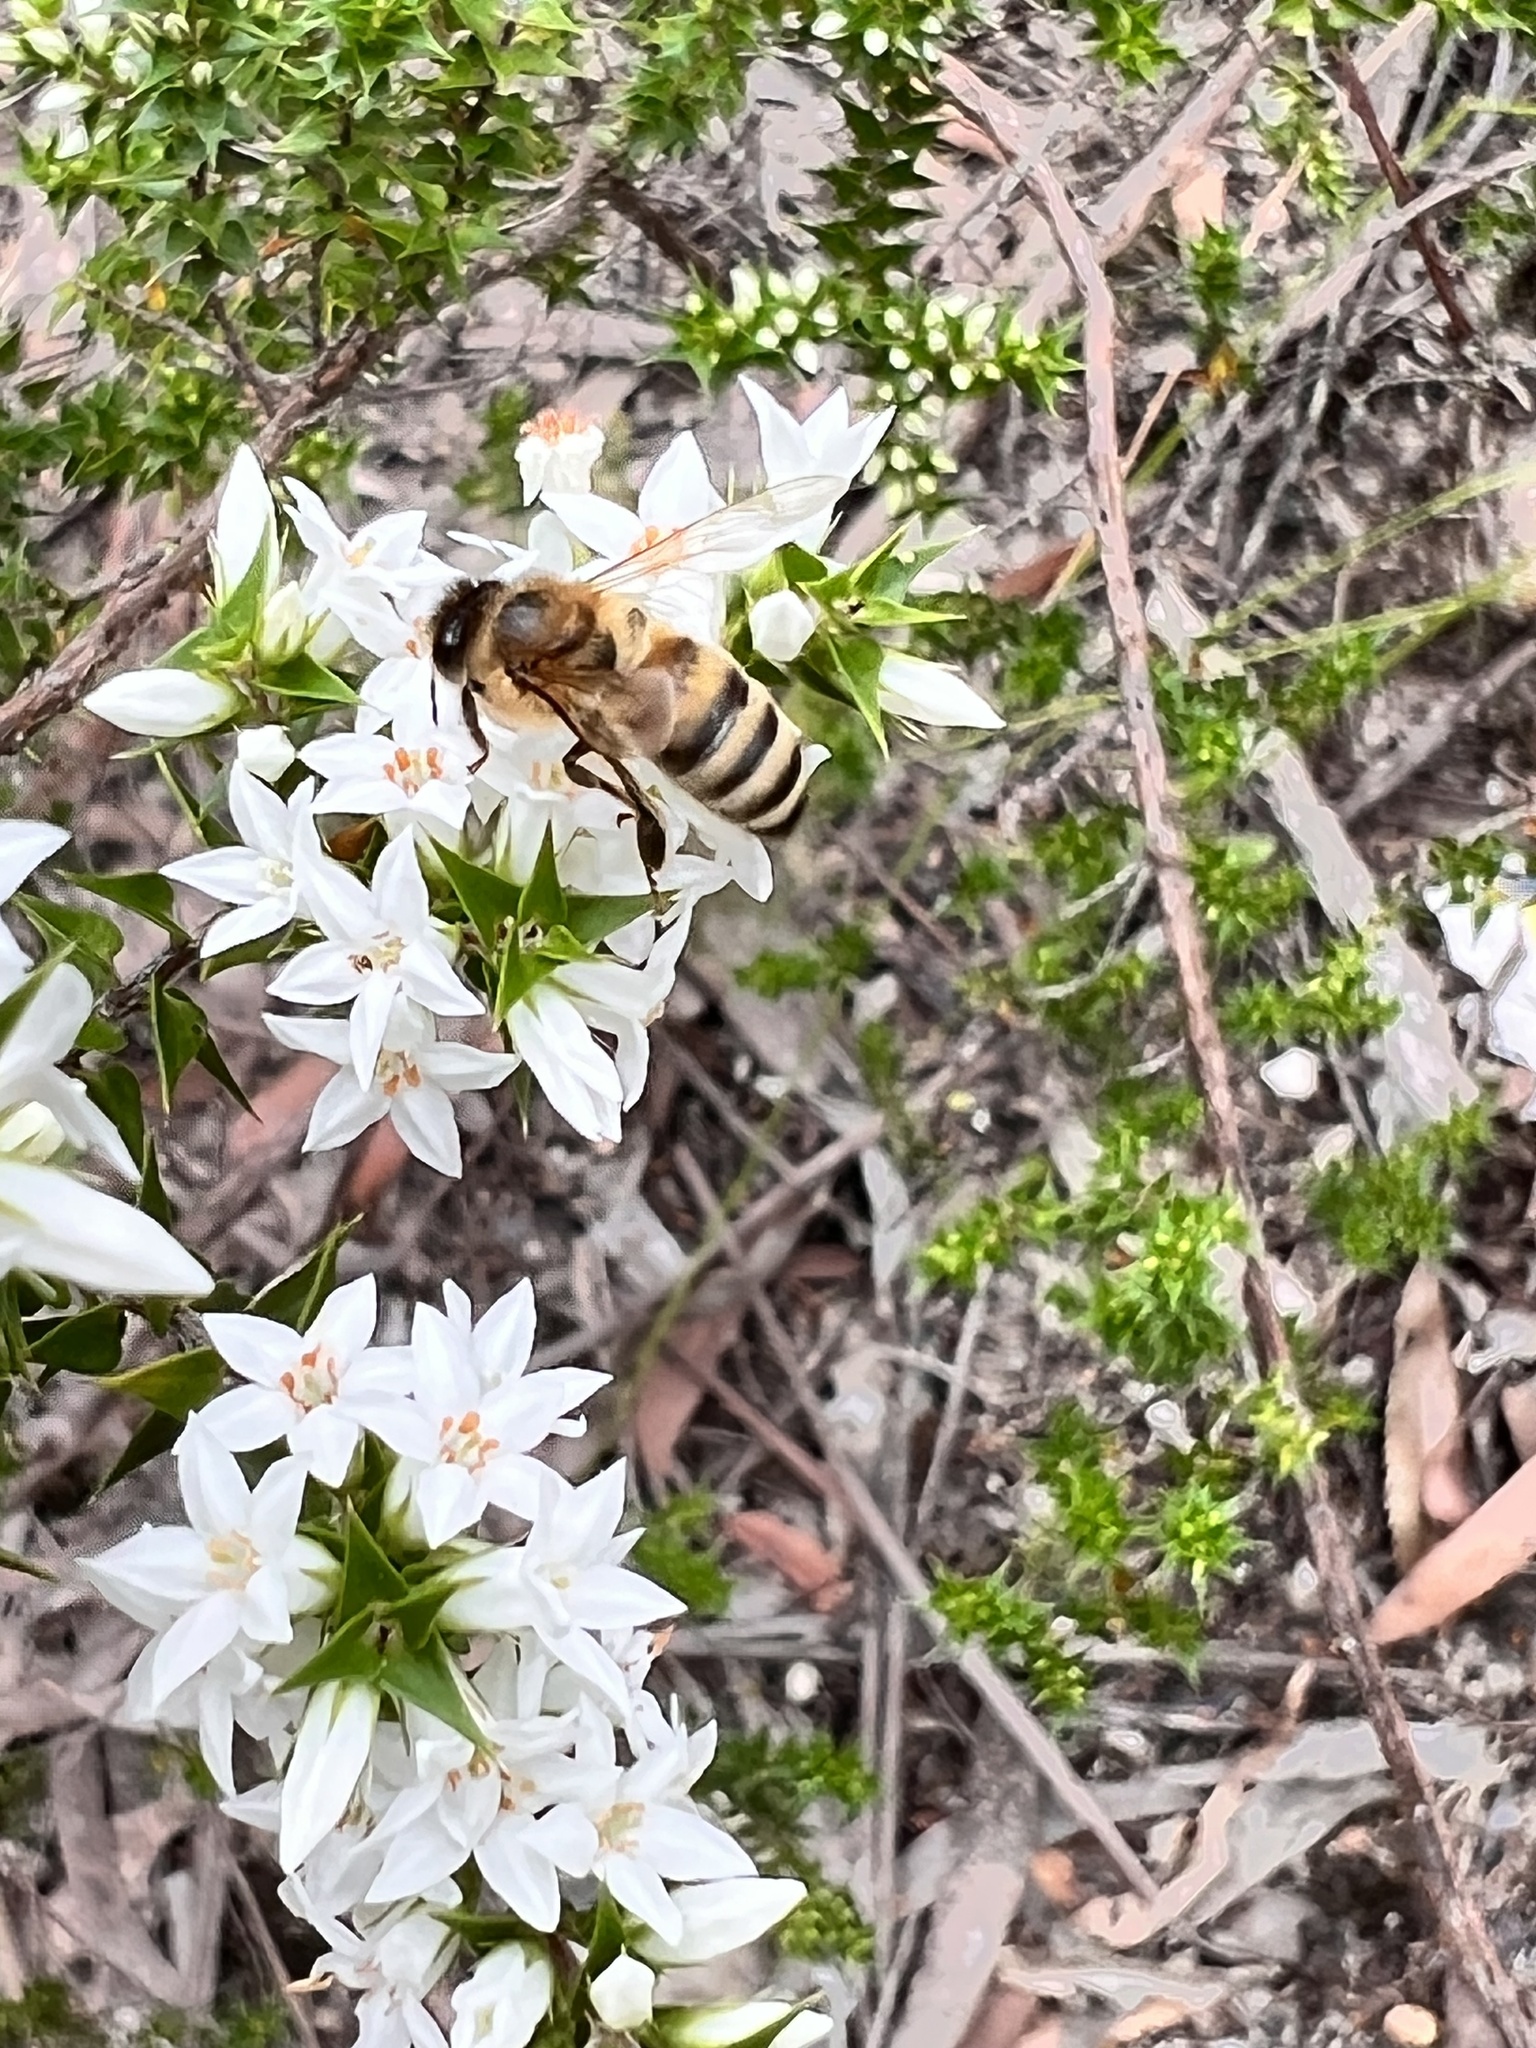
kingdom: Animalia
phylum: Arthropoda
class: Insecta
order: Hymenoptera
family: Apidae
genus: Apis
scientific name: Apis mellifera
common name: Honey bee
